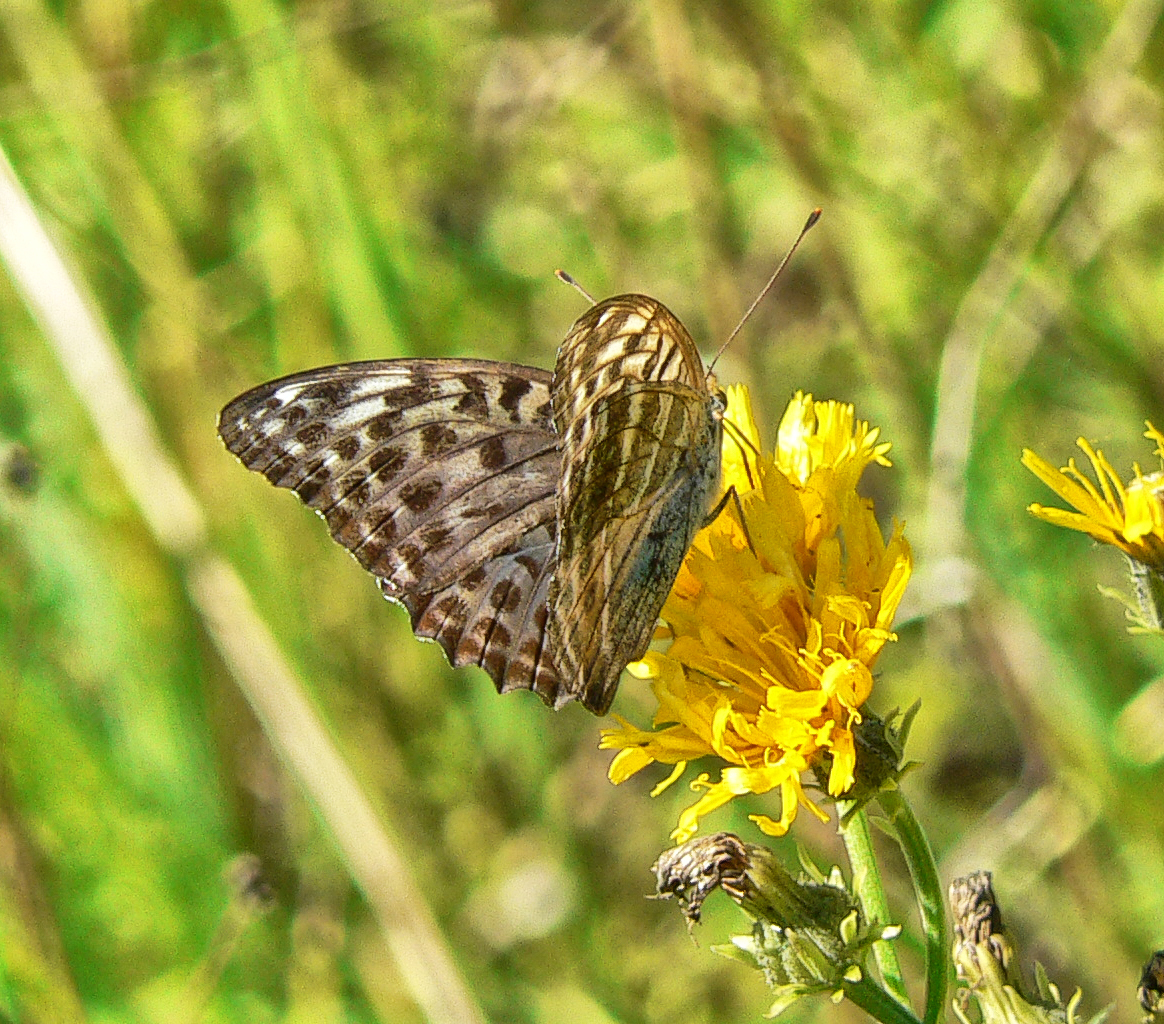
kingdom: Animalia
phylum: Arthropoda
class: Insecta
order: Lepidoptera
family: Nymphalidae
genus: Argynnis
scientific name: Argynnis paphia
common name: Silver-washed fritillary
